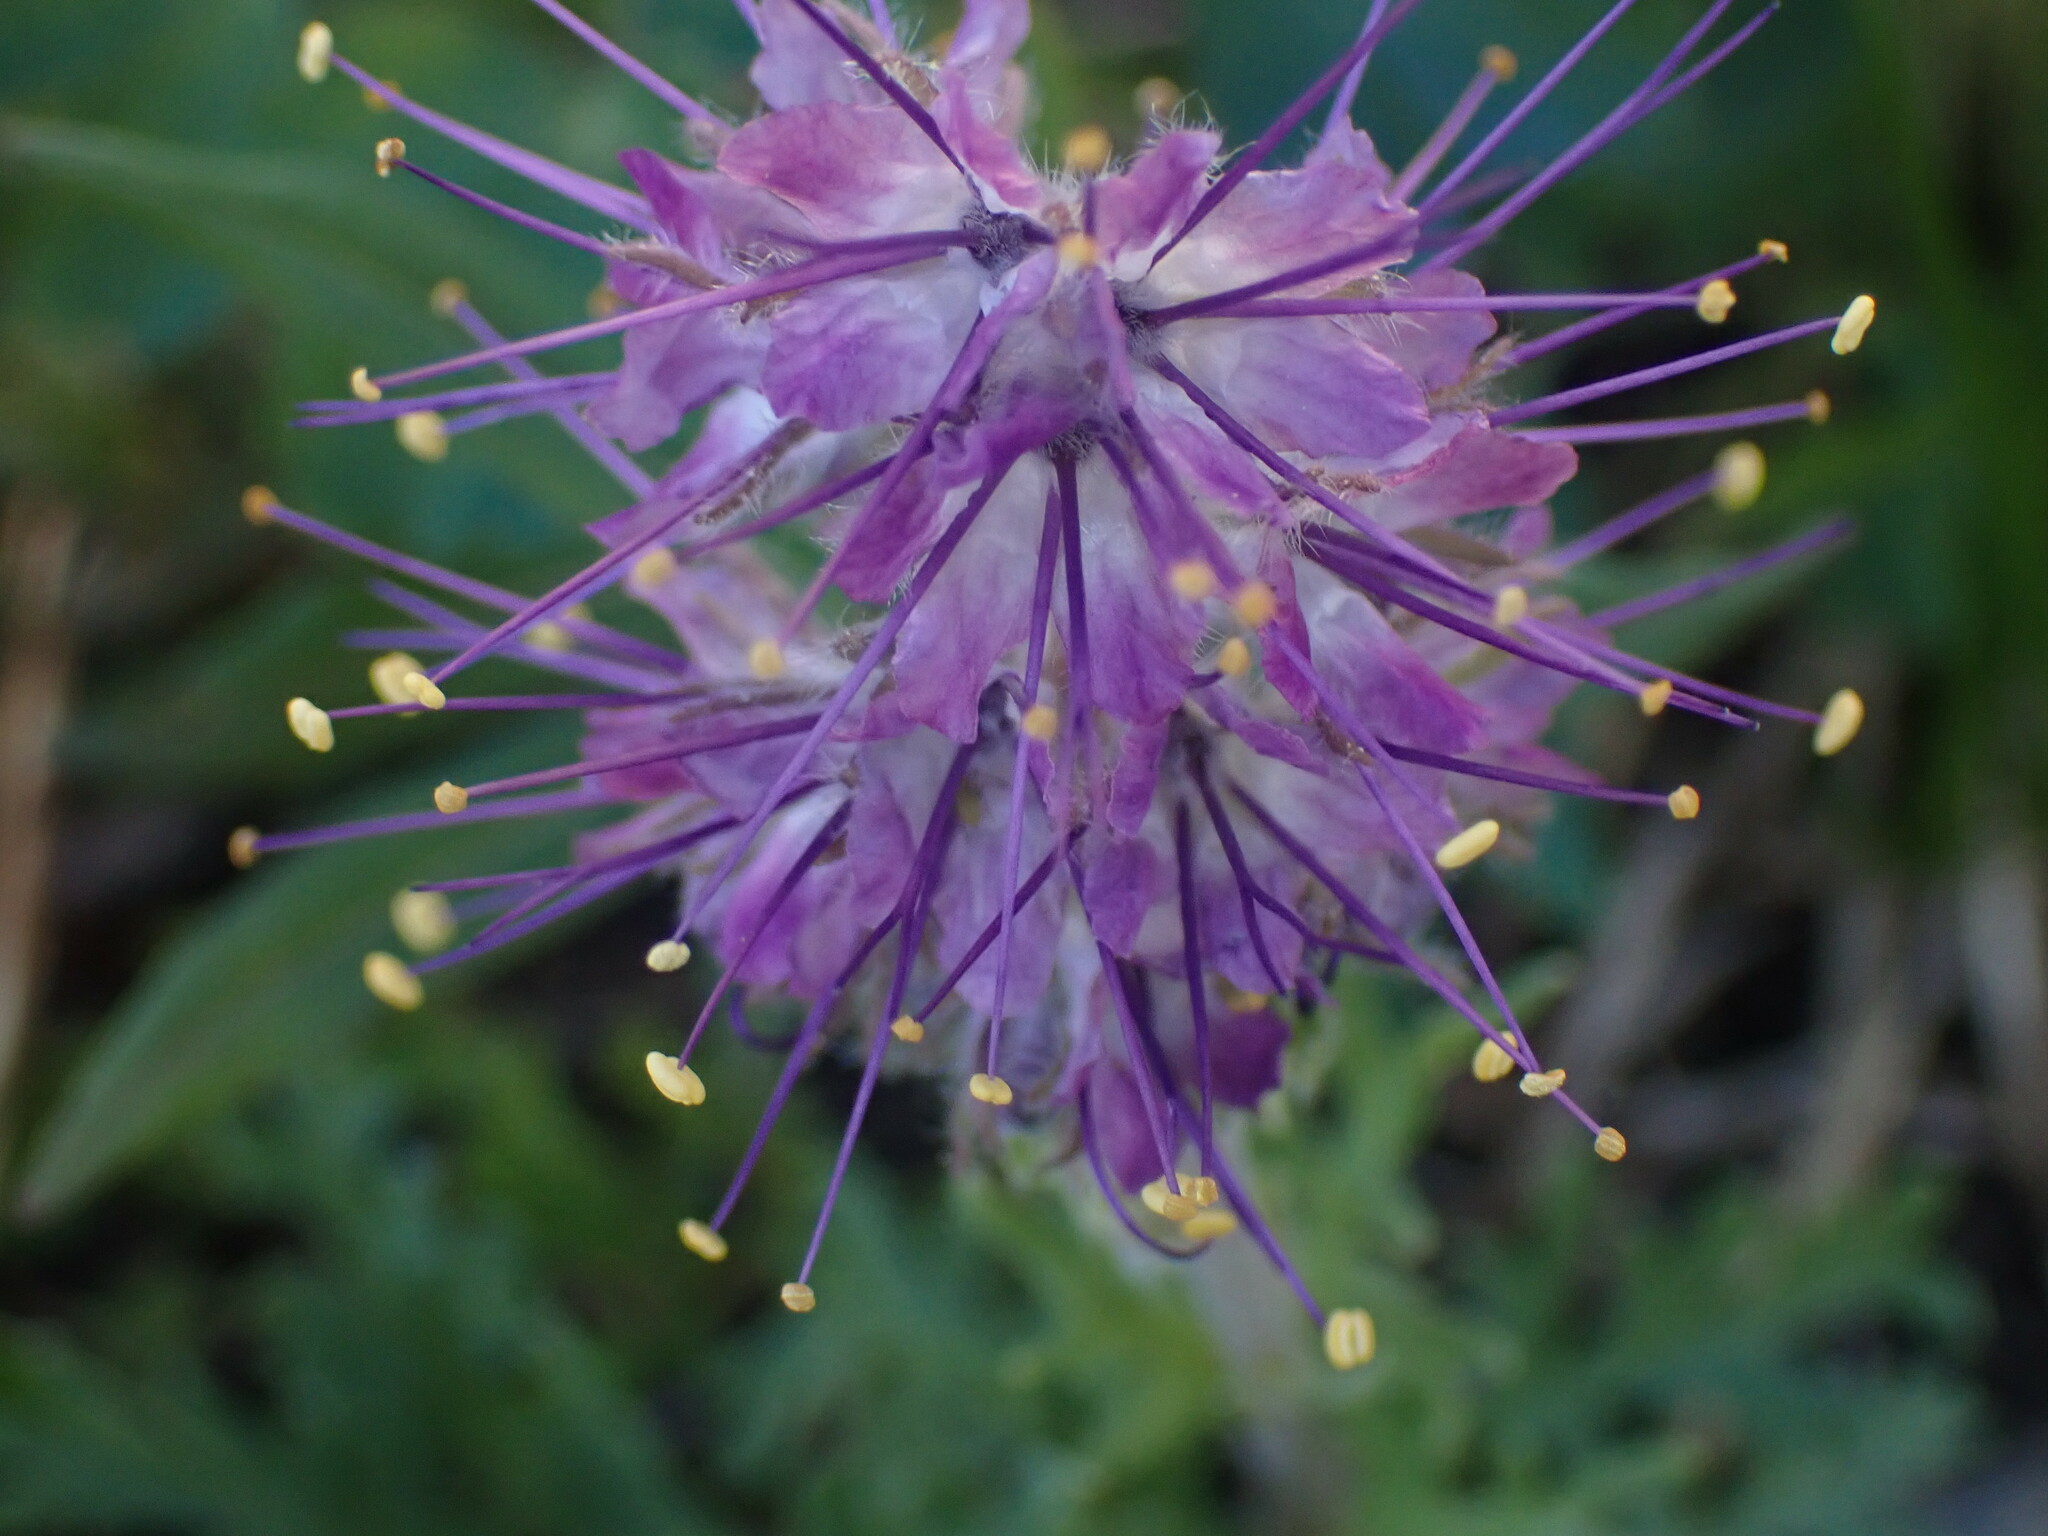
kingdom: Plantae
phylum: Tracheophyta
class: Magnoliopsida
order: Boraginales
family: Hydrophyllaceae
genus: Phacelia
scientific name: Phacelia sericea
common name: Silky phacelia
